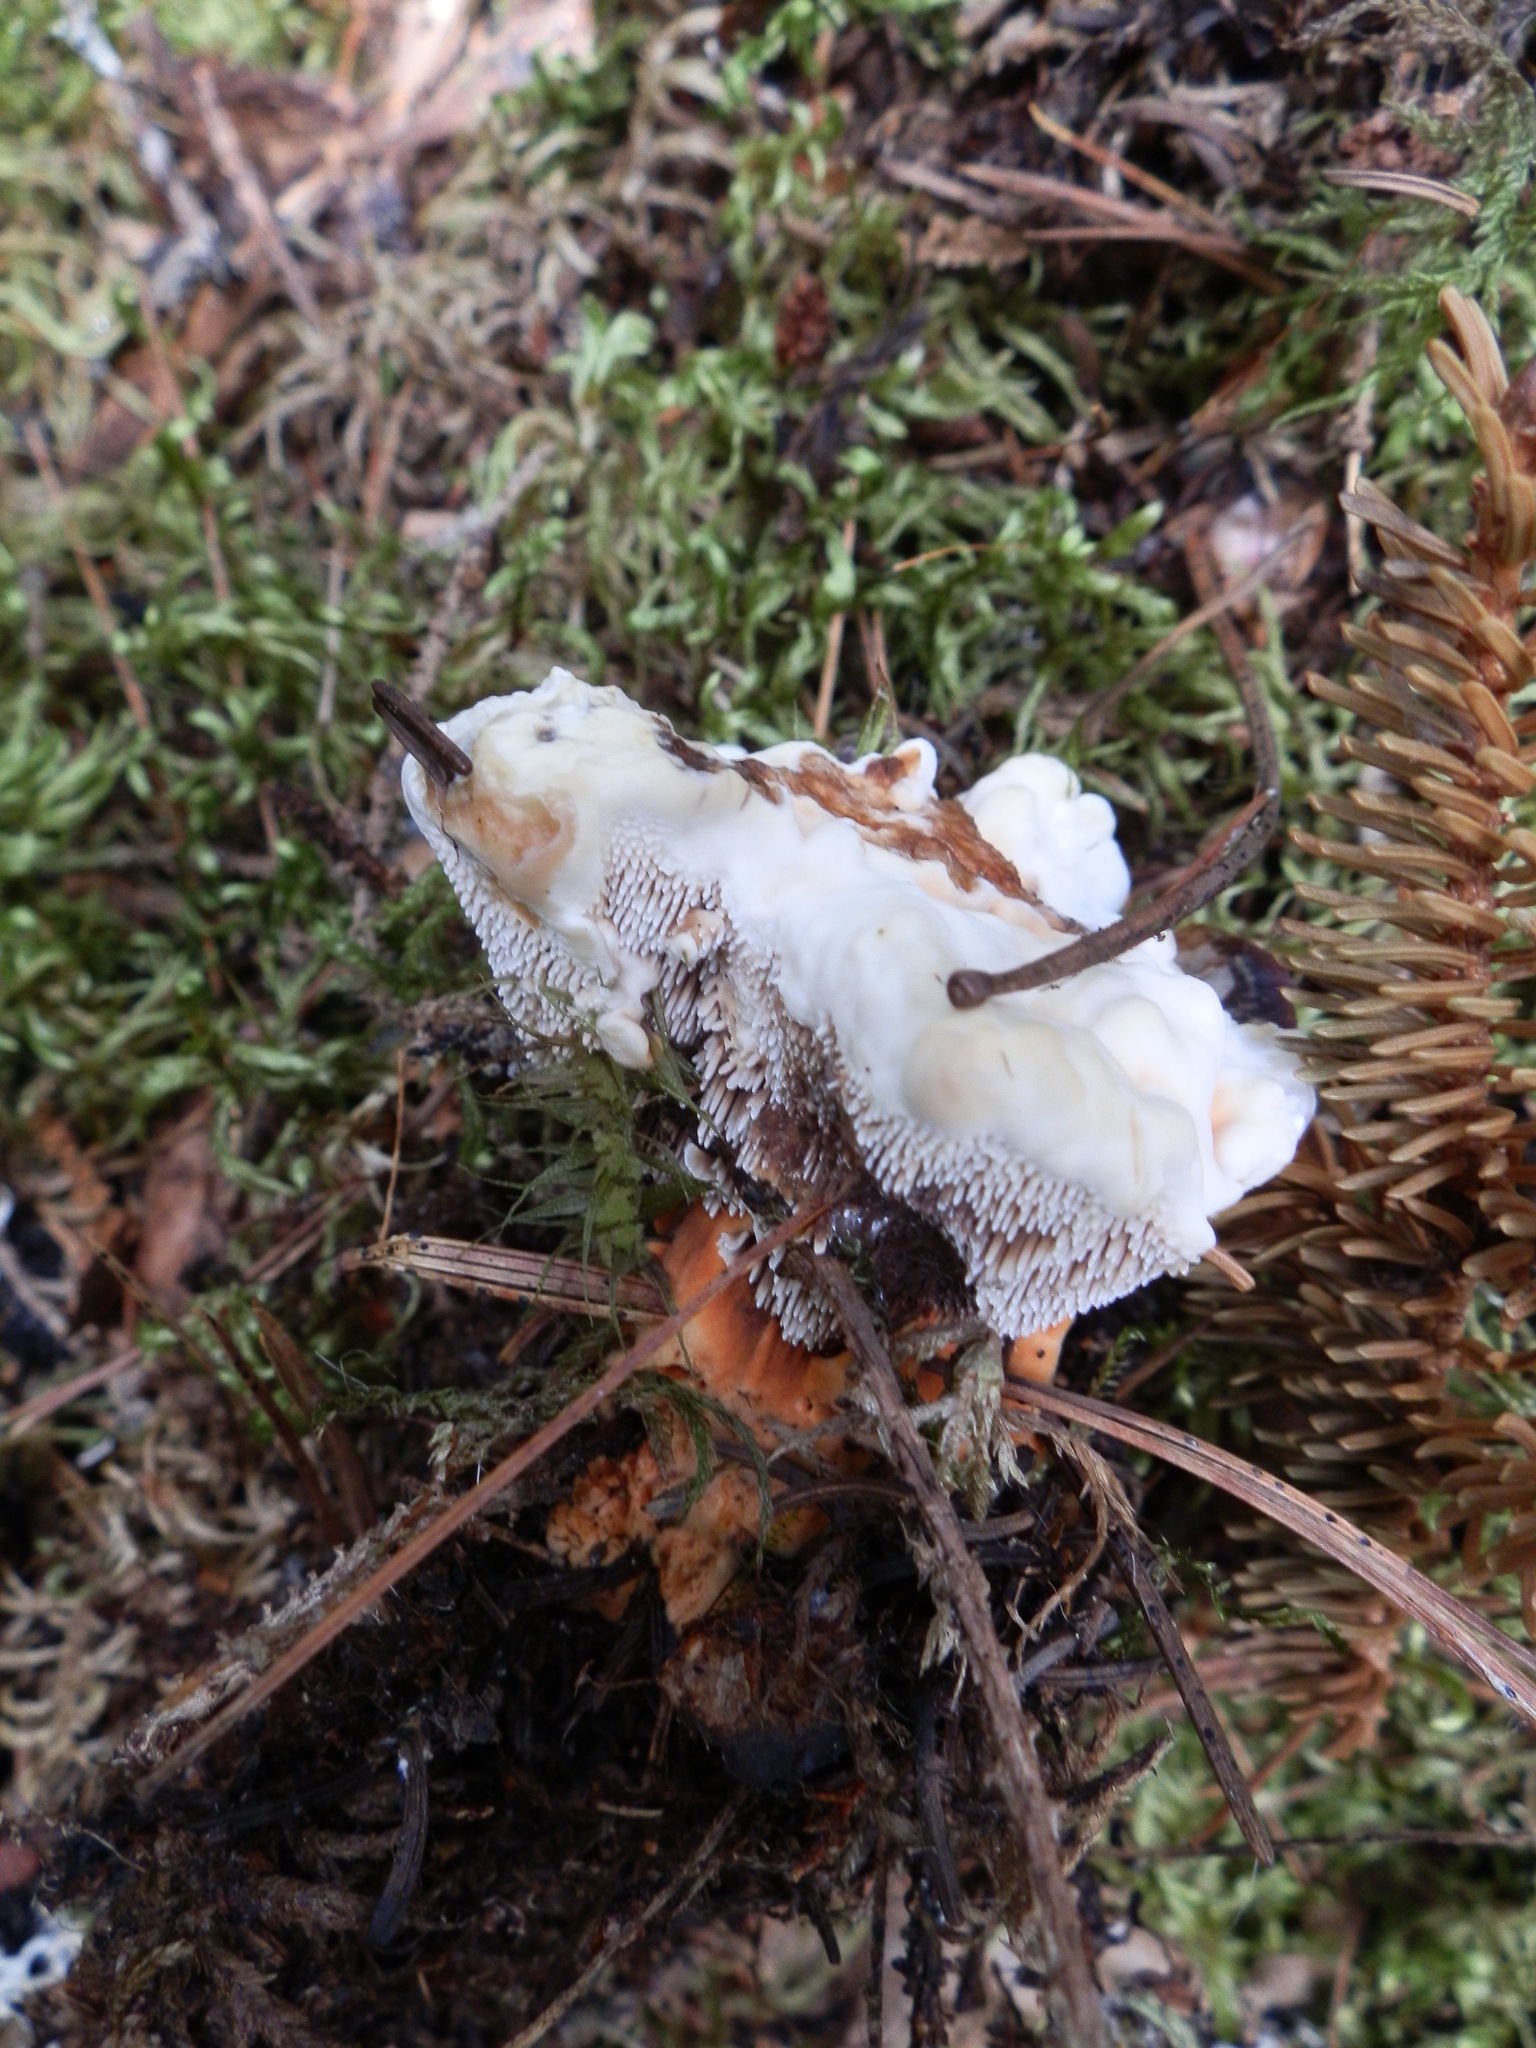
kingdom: Fungi
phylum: Basidiomycota
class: Agaricomycetes
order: Thelephorales
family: Bankeraceae
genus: Hydnellum
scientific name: Hydnellum aurantiacum
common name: Orange tooth
